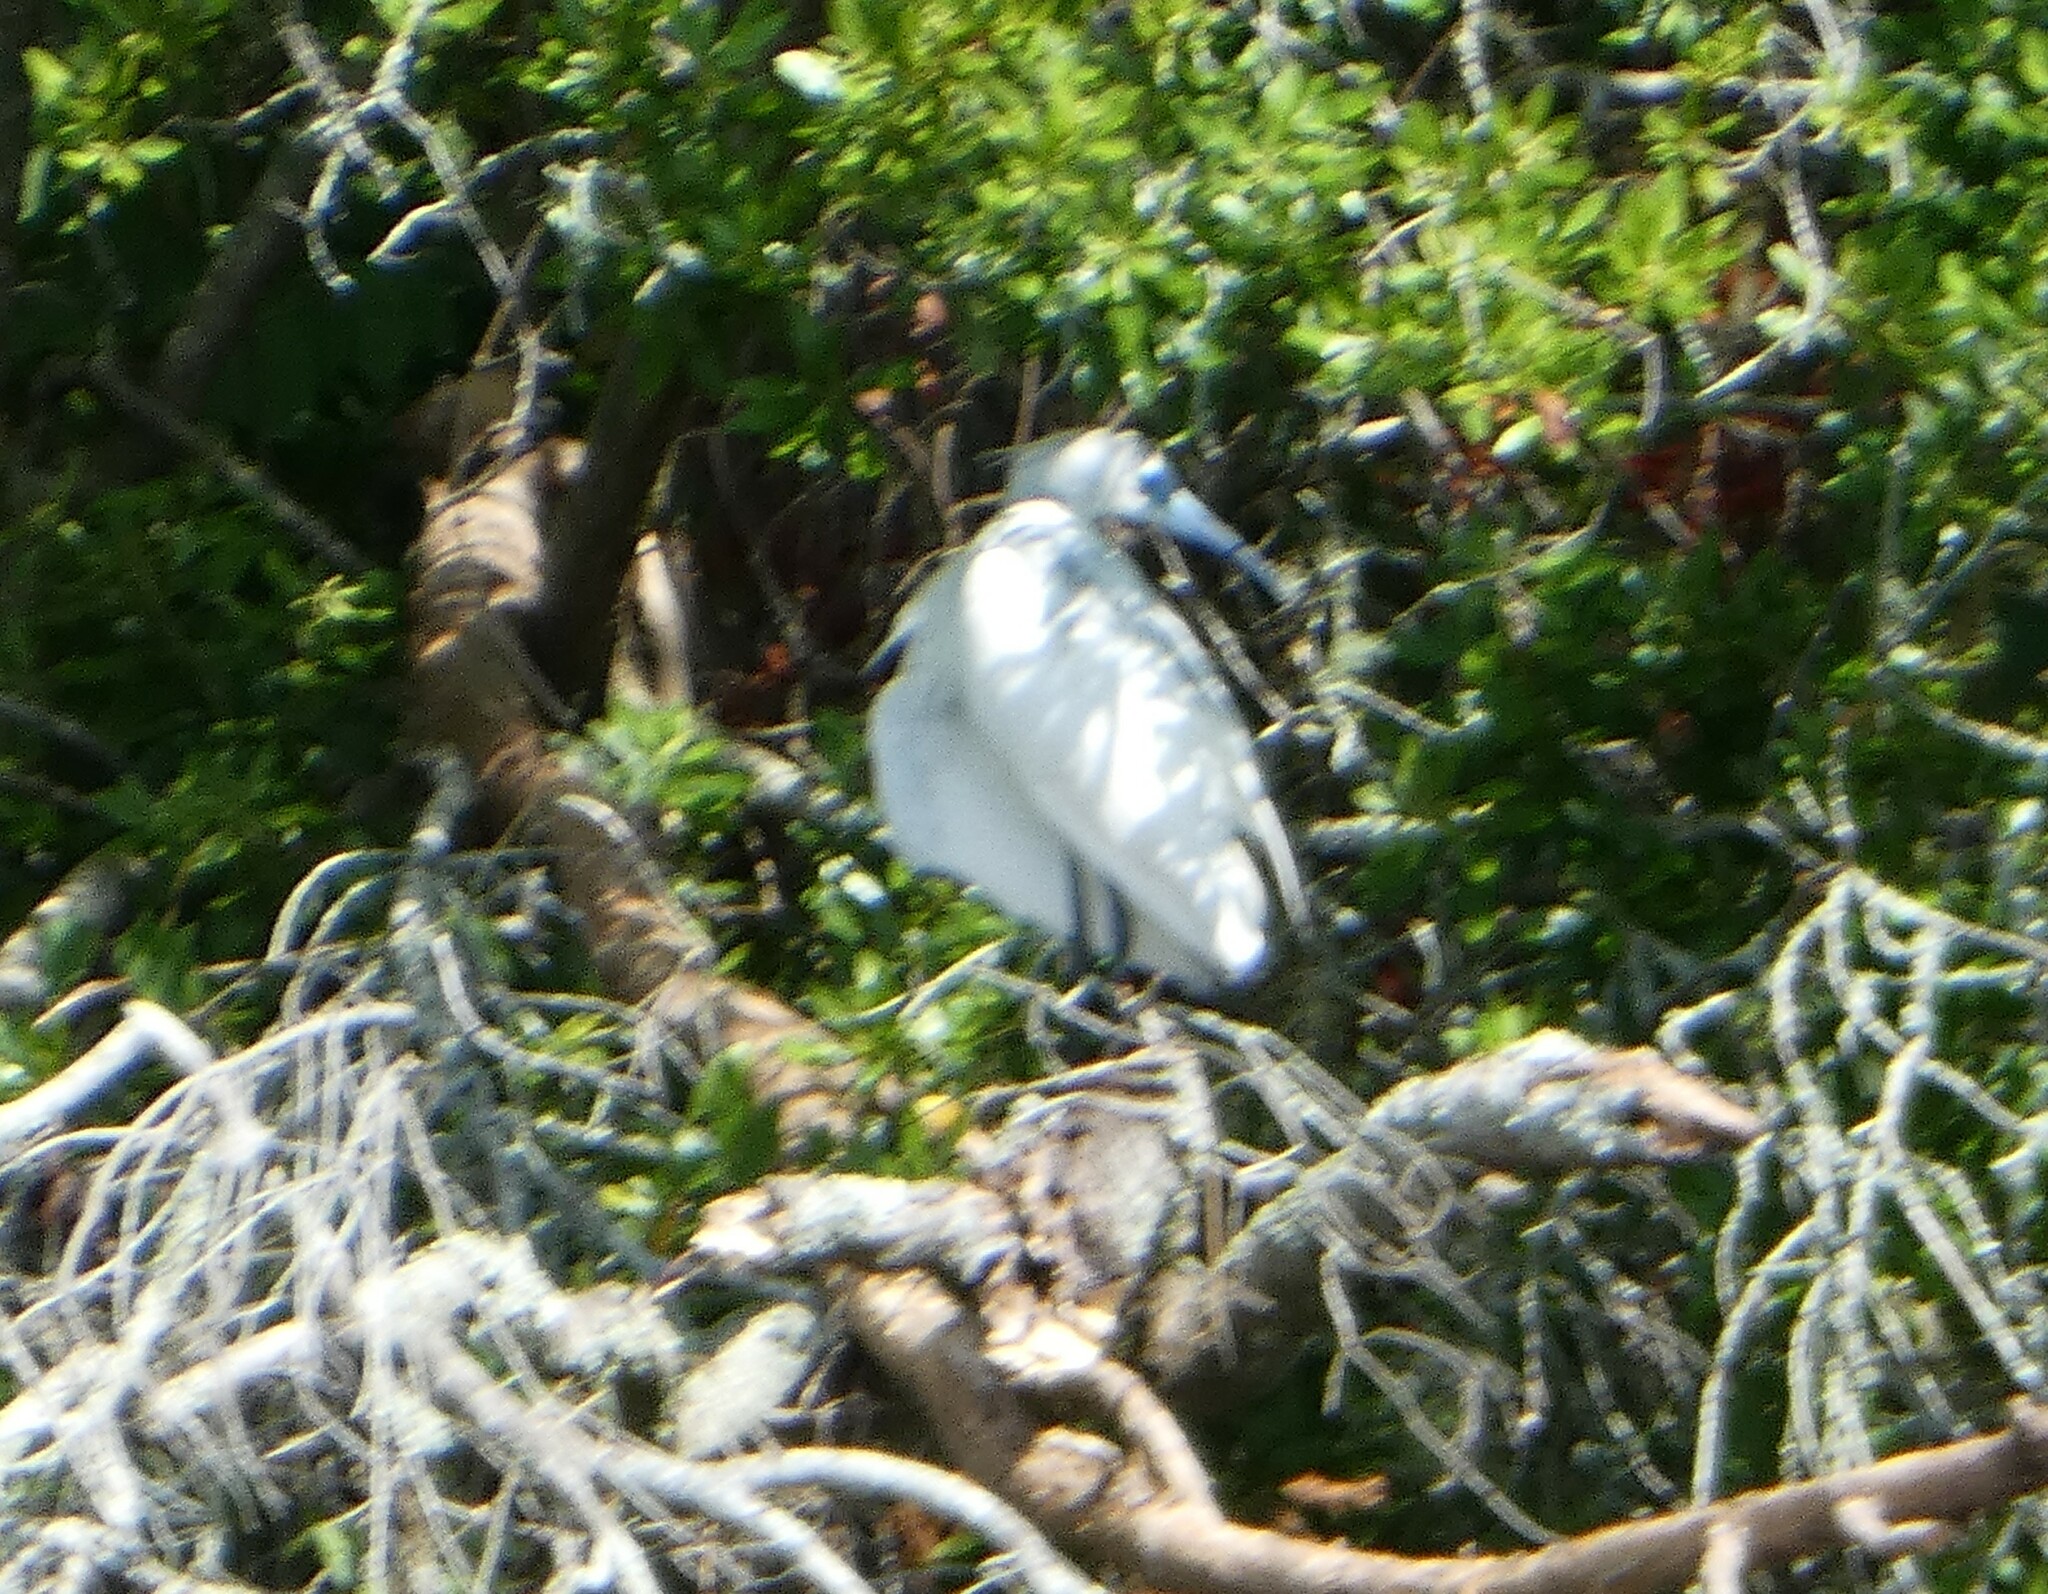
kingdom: Animalia
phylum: Chordata
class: Aves
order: Pelecaniformes
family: Ardeidae
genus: Egretta
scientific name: Egretta caerulea
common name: Little blue heron
